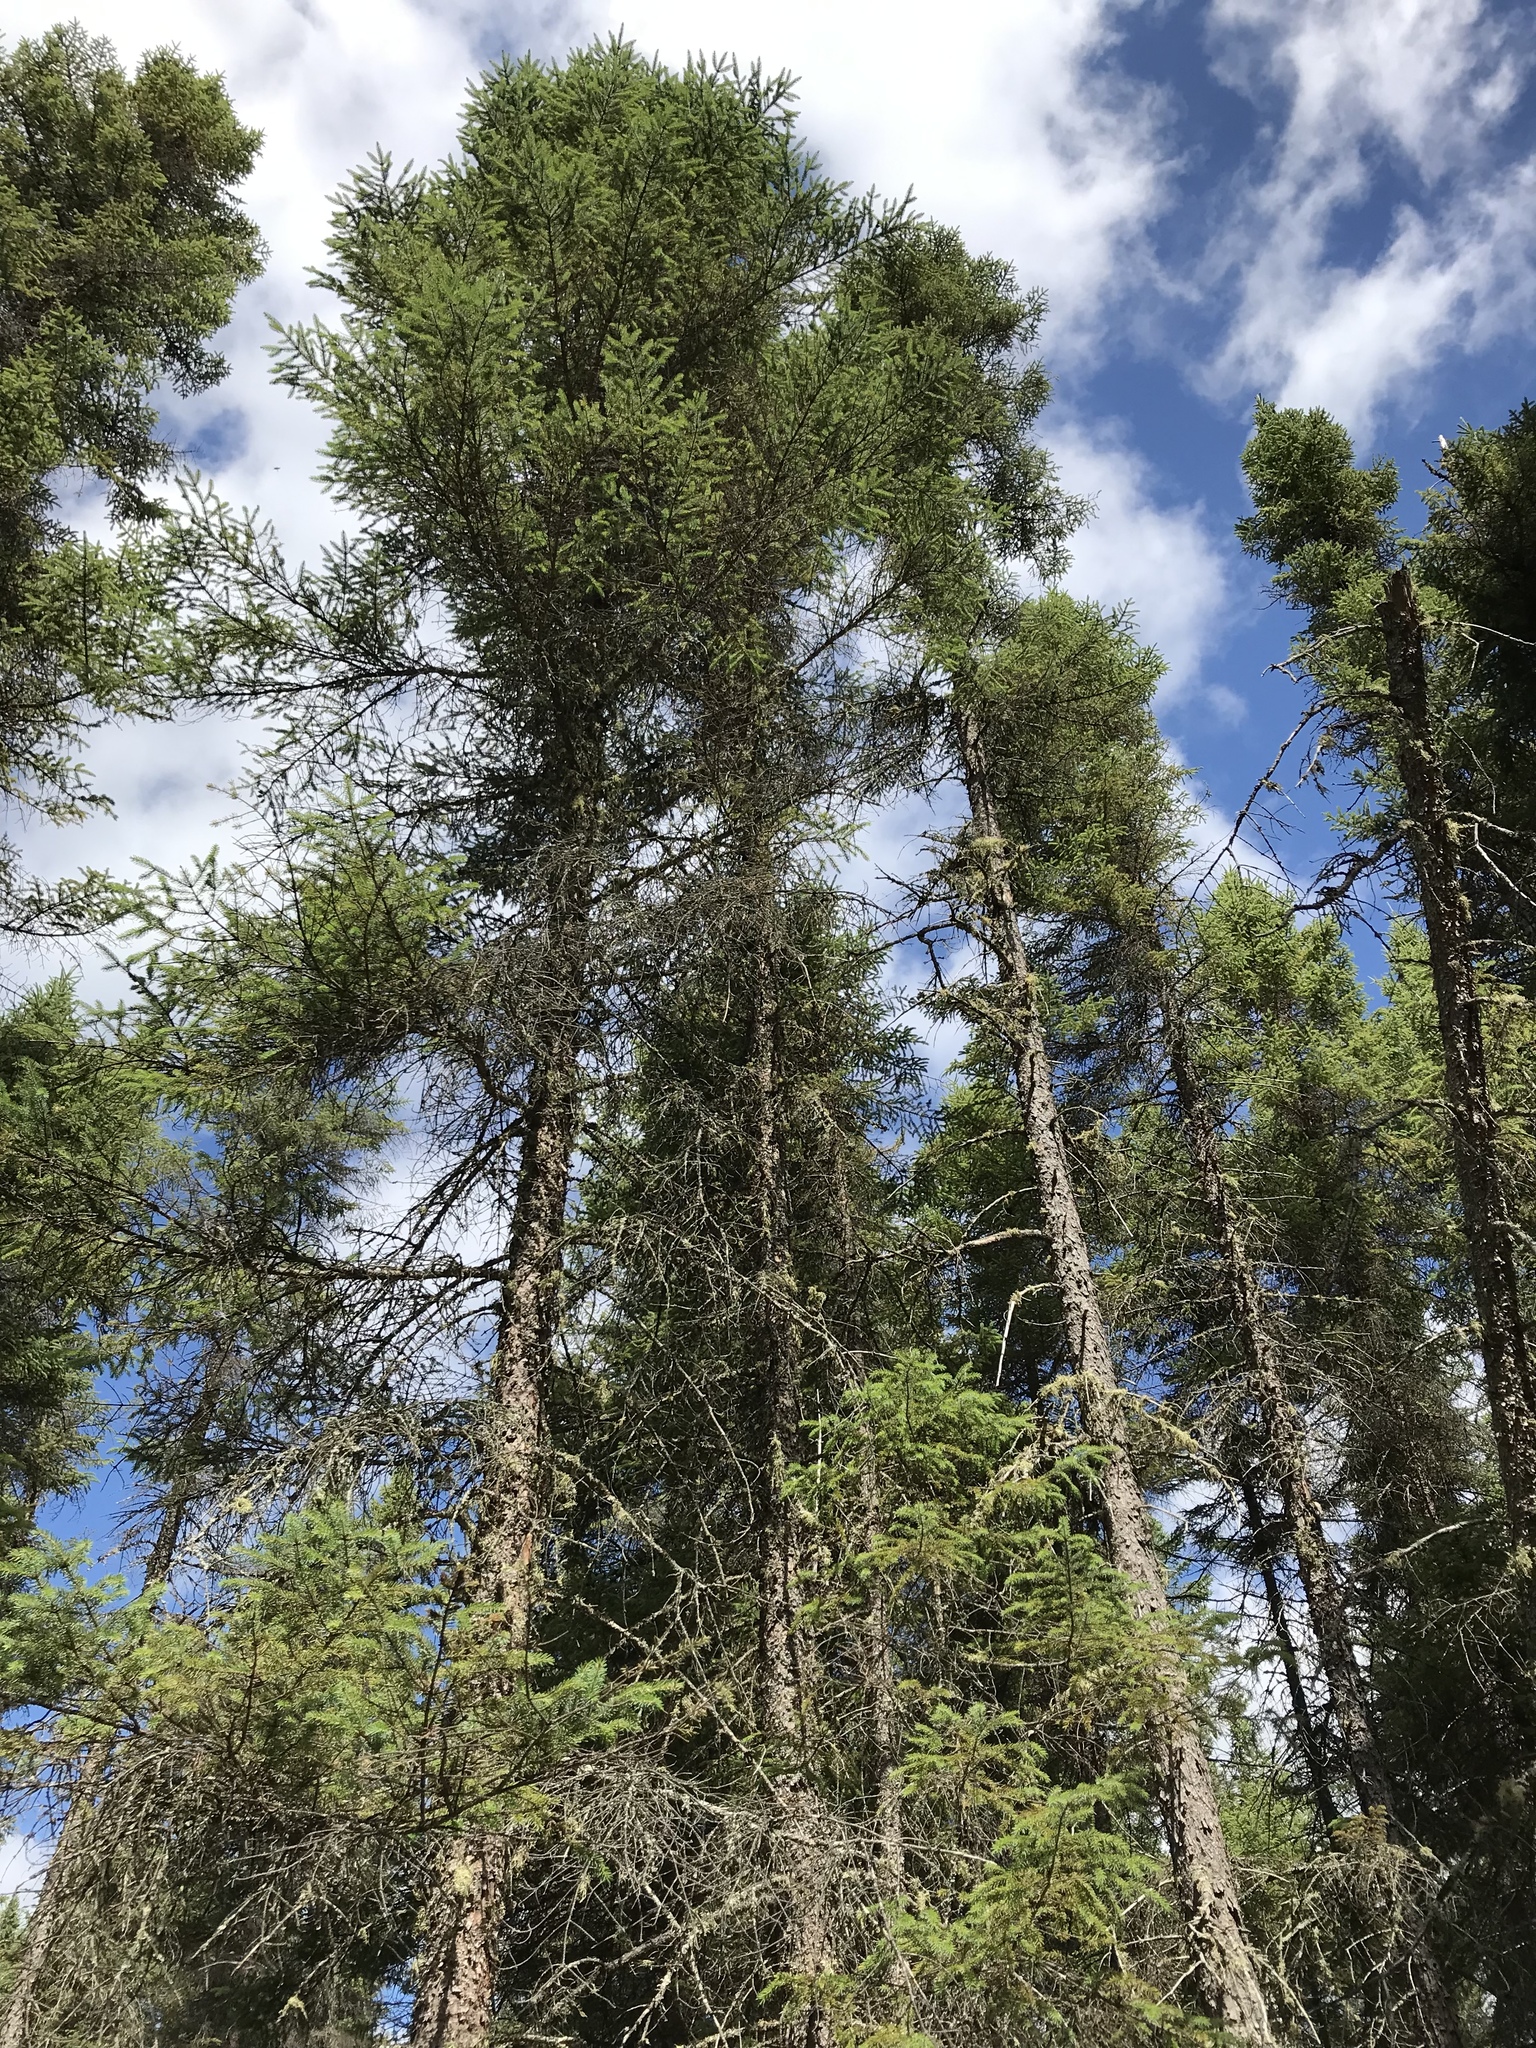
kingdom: Plantae
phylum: Tracheophyta
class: Pinopsida
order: Pinales
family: Pinaceae
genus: Picea
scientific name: Picea mariana
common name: Black spruce
